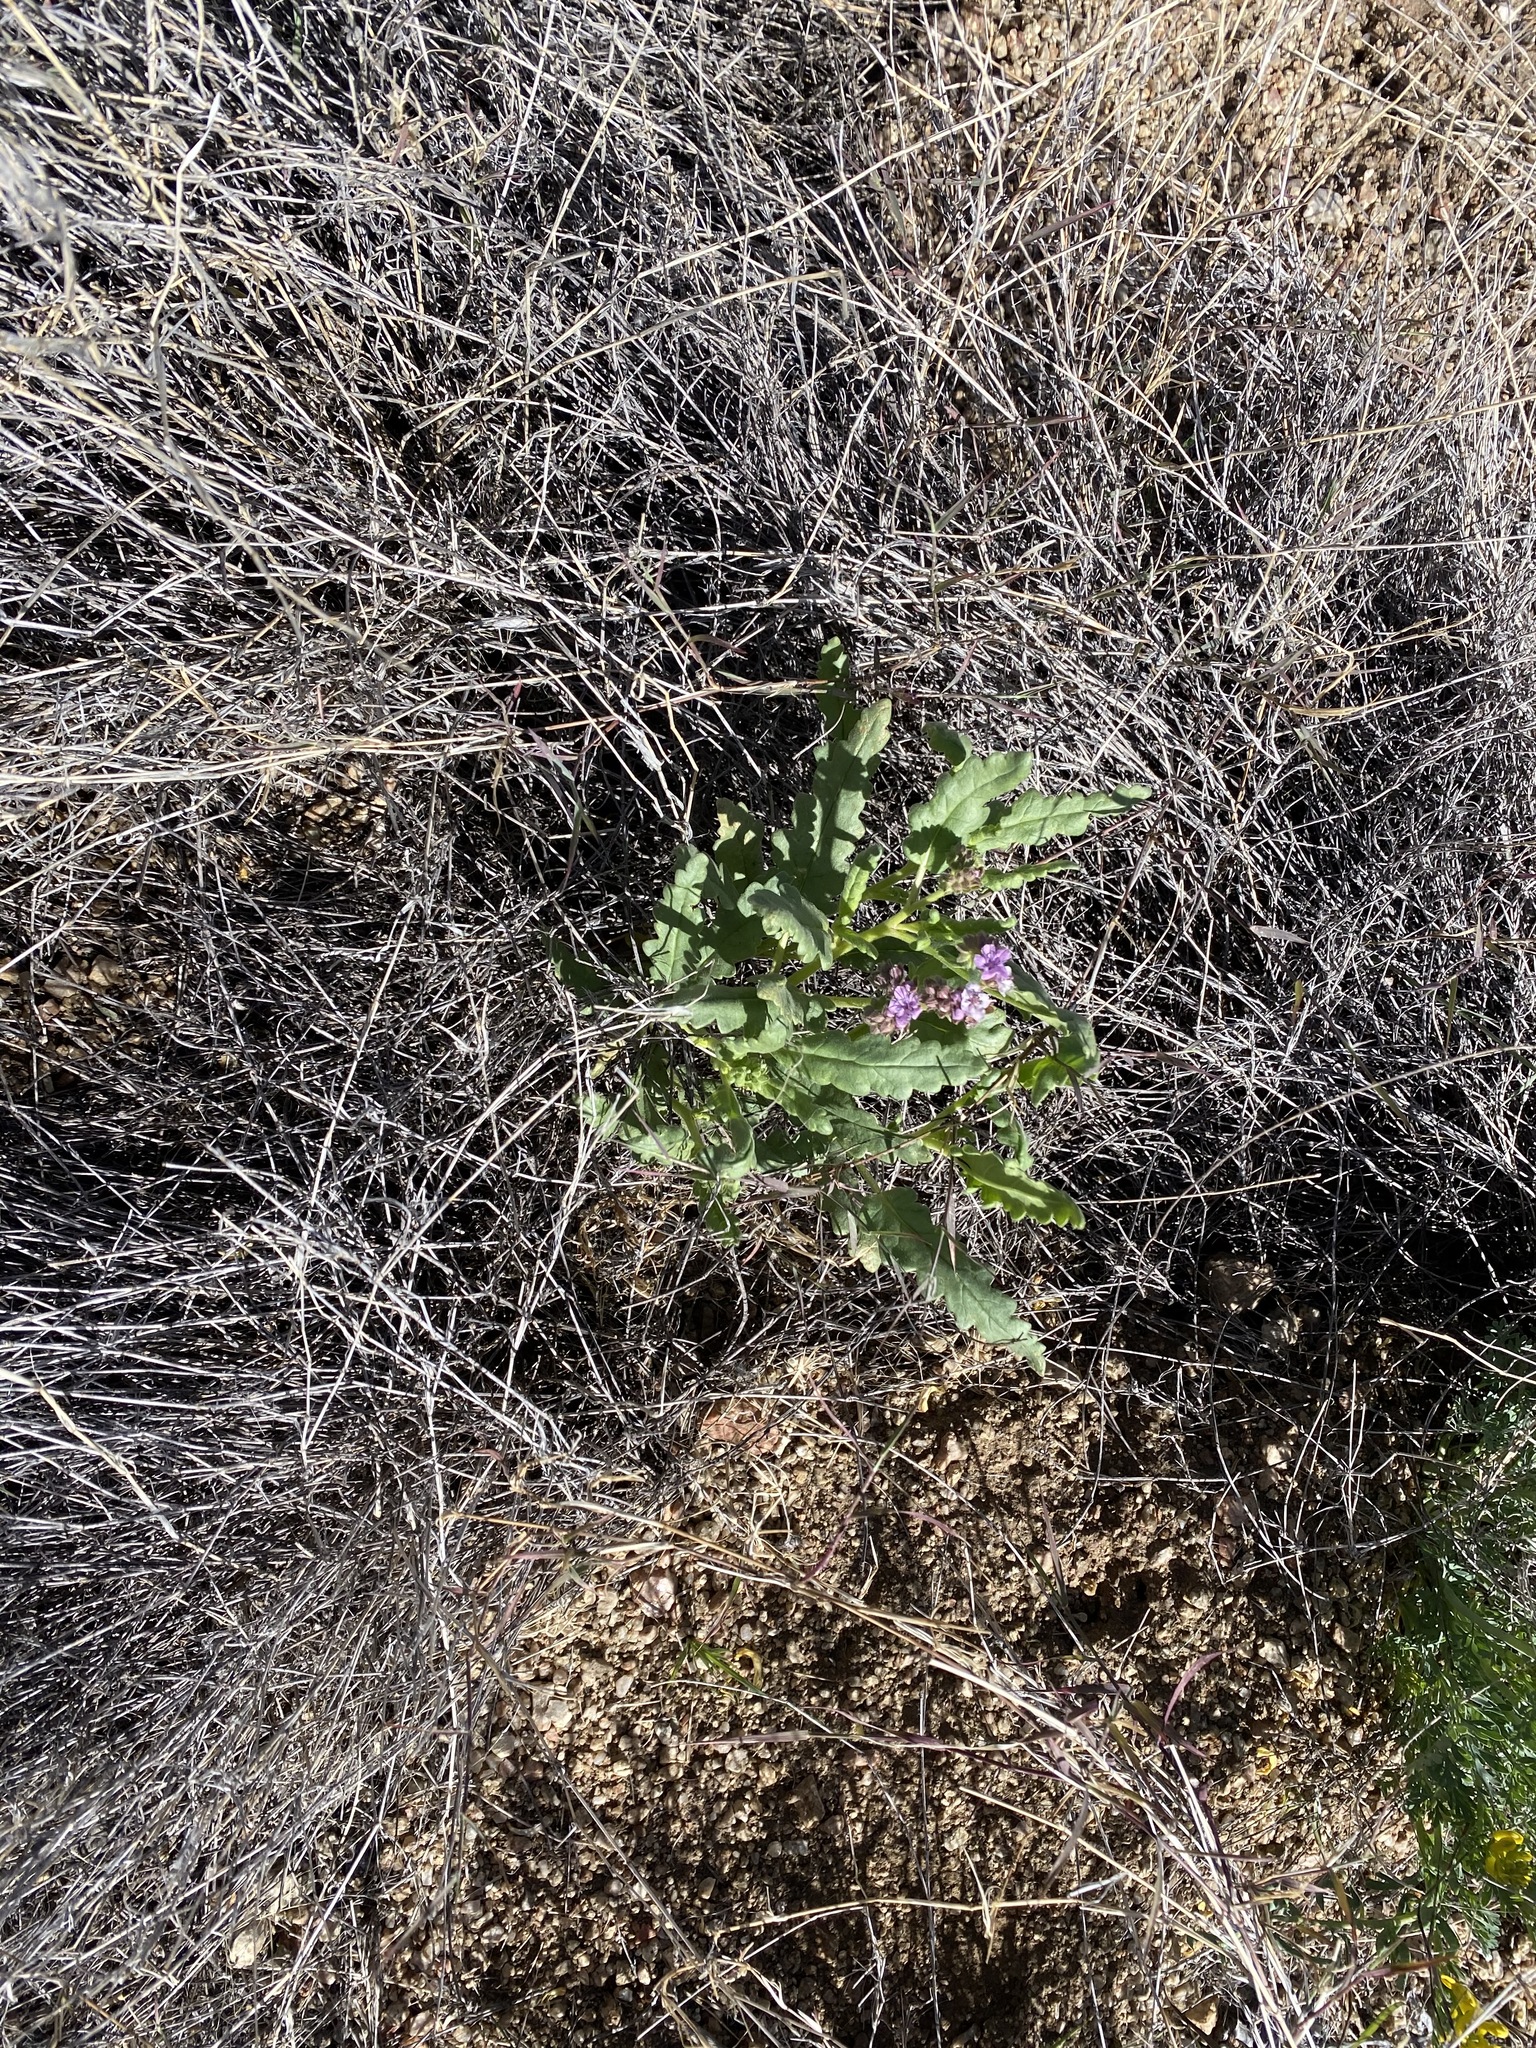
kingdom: Plantae
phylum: Tracheophyta
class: Magnoliopsida
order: Boraginales
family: Hydrophyllaceae
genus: Phacelia
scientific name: Phacelia integrifolia
